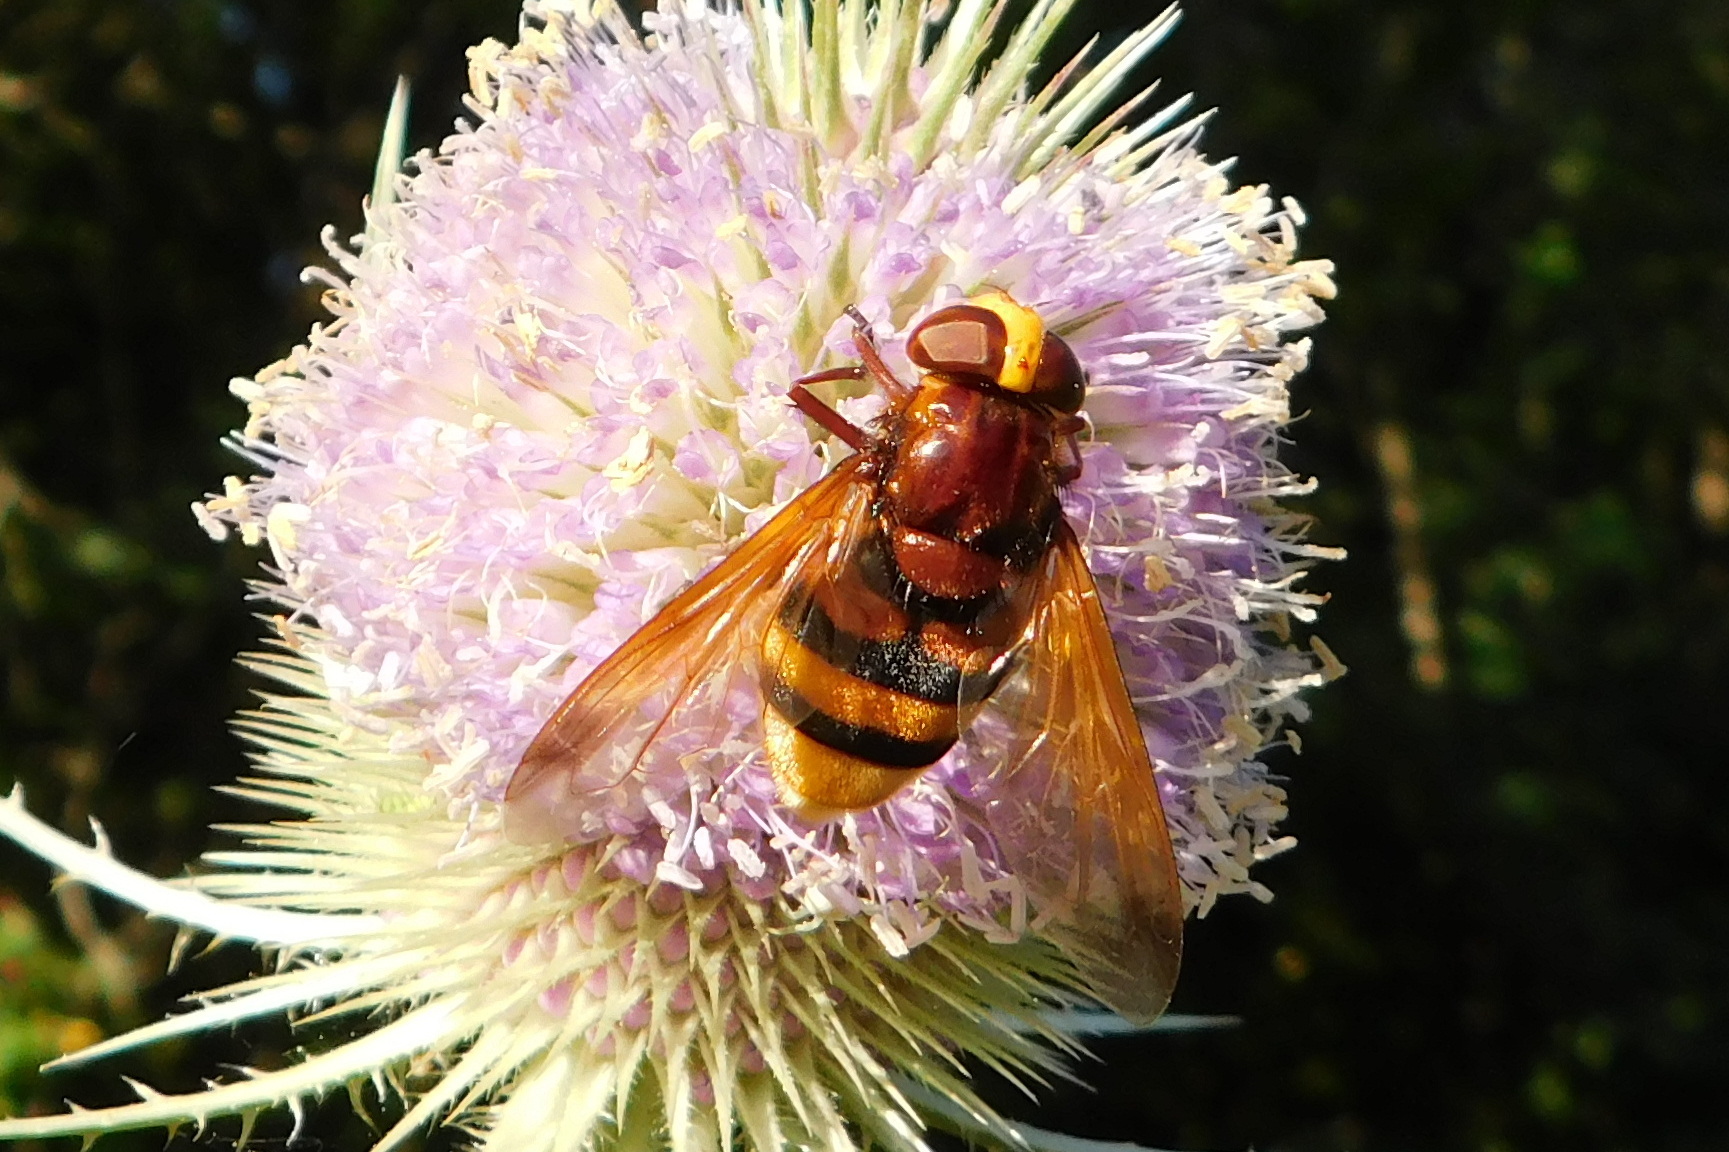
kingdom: Animalia
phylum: Arthropoda
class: Insecta
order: Diptera
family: Syrphidae
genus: Volucella
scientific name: Volucella zonaria
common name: Hornet hoverfly
